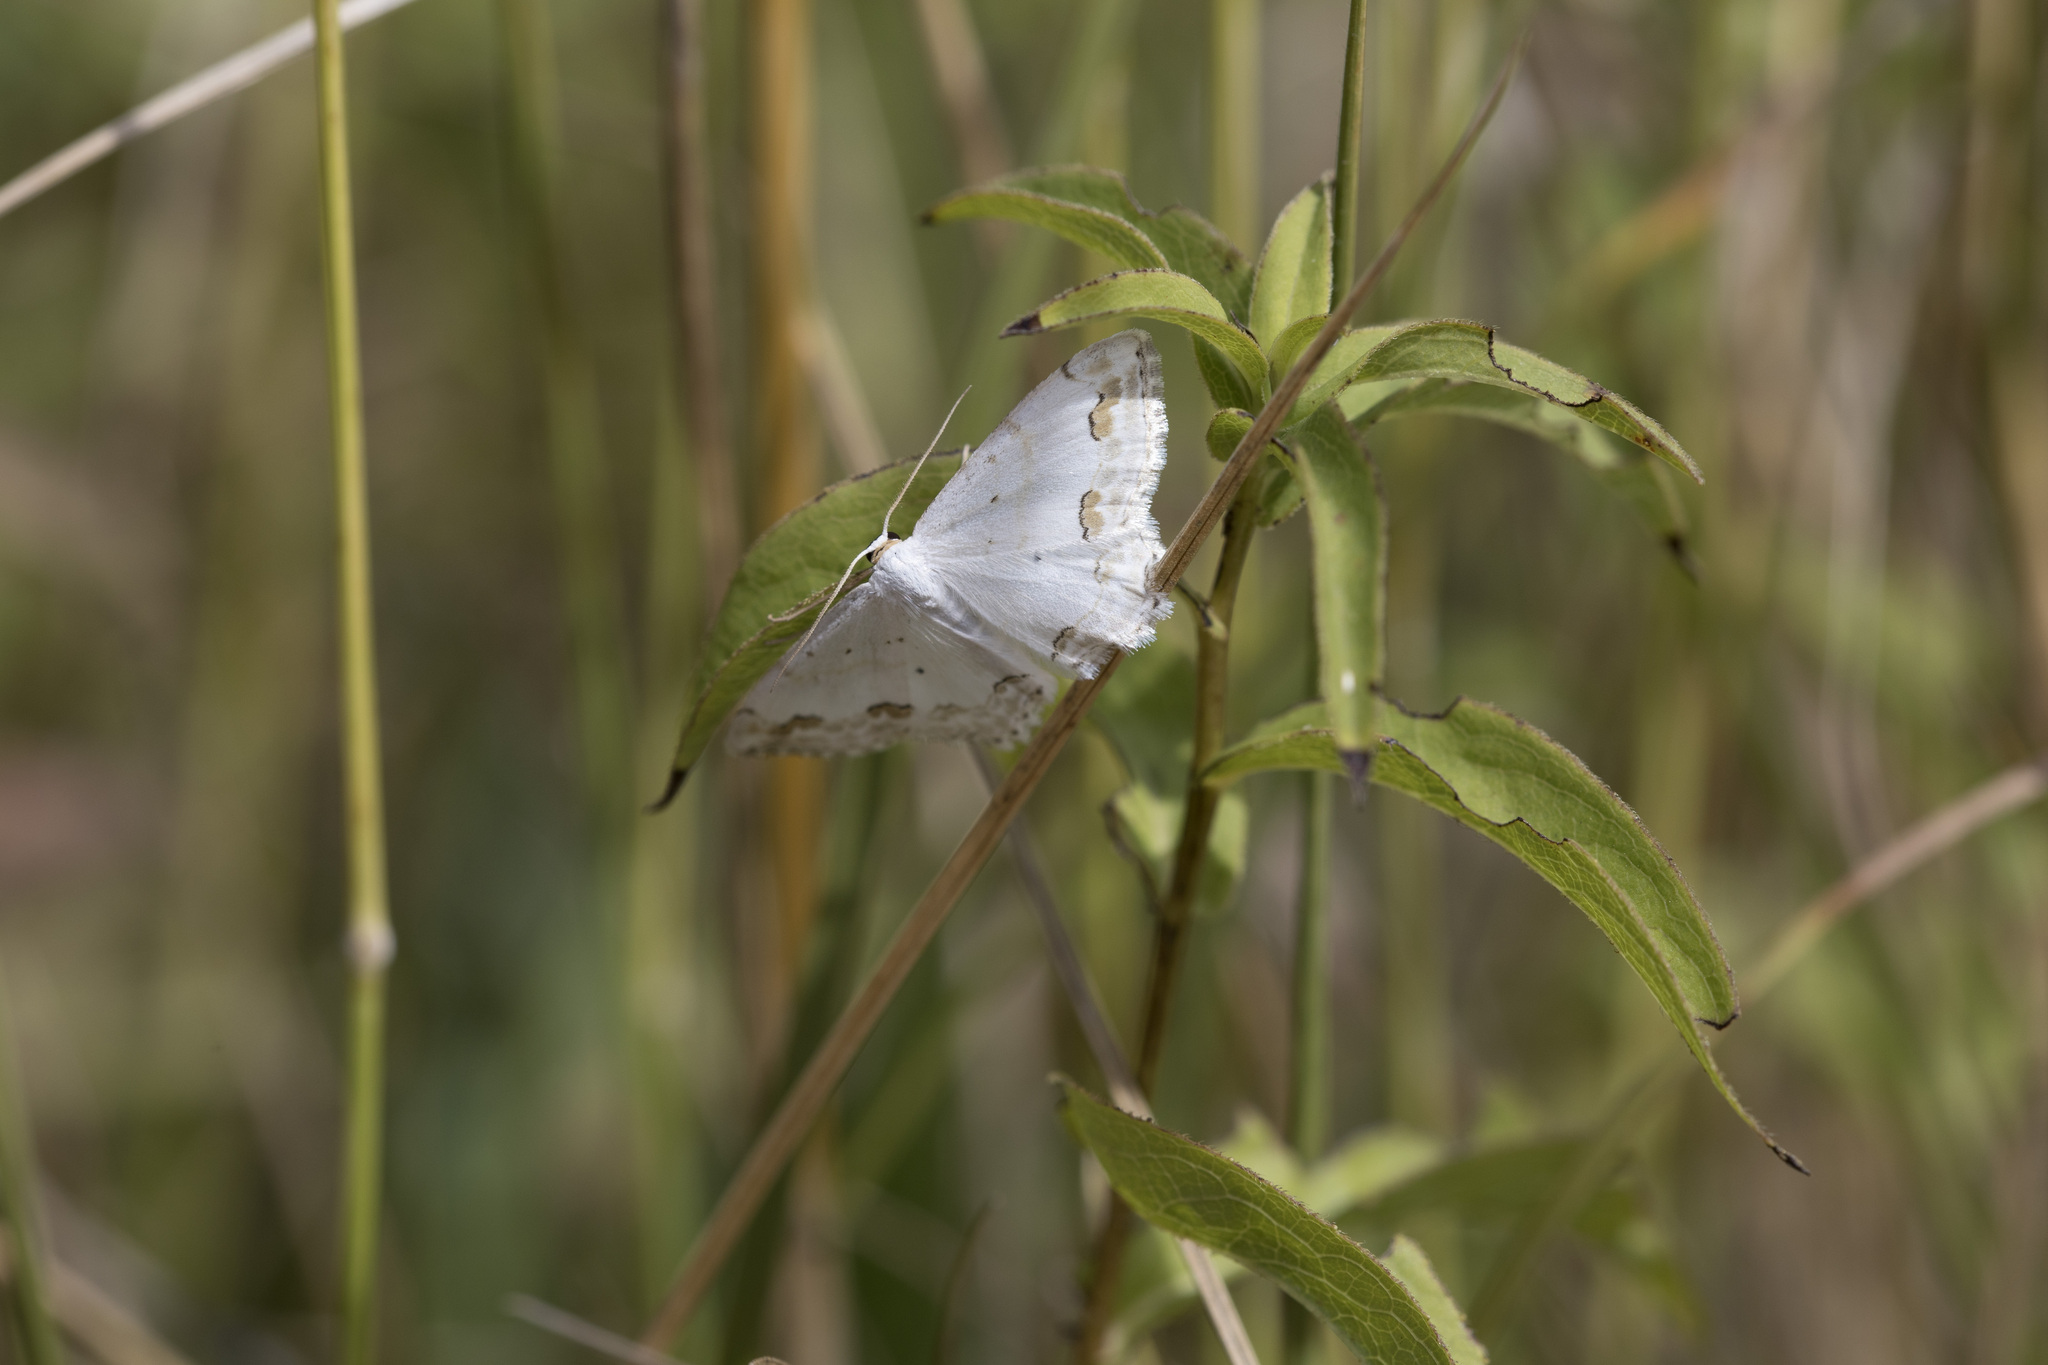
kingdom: Animalia
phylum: Arthropoda
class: Insecta
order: Lepidoptera
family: Geometridae
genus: Scopula
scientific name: Scopula ornata
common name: Lace border
